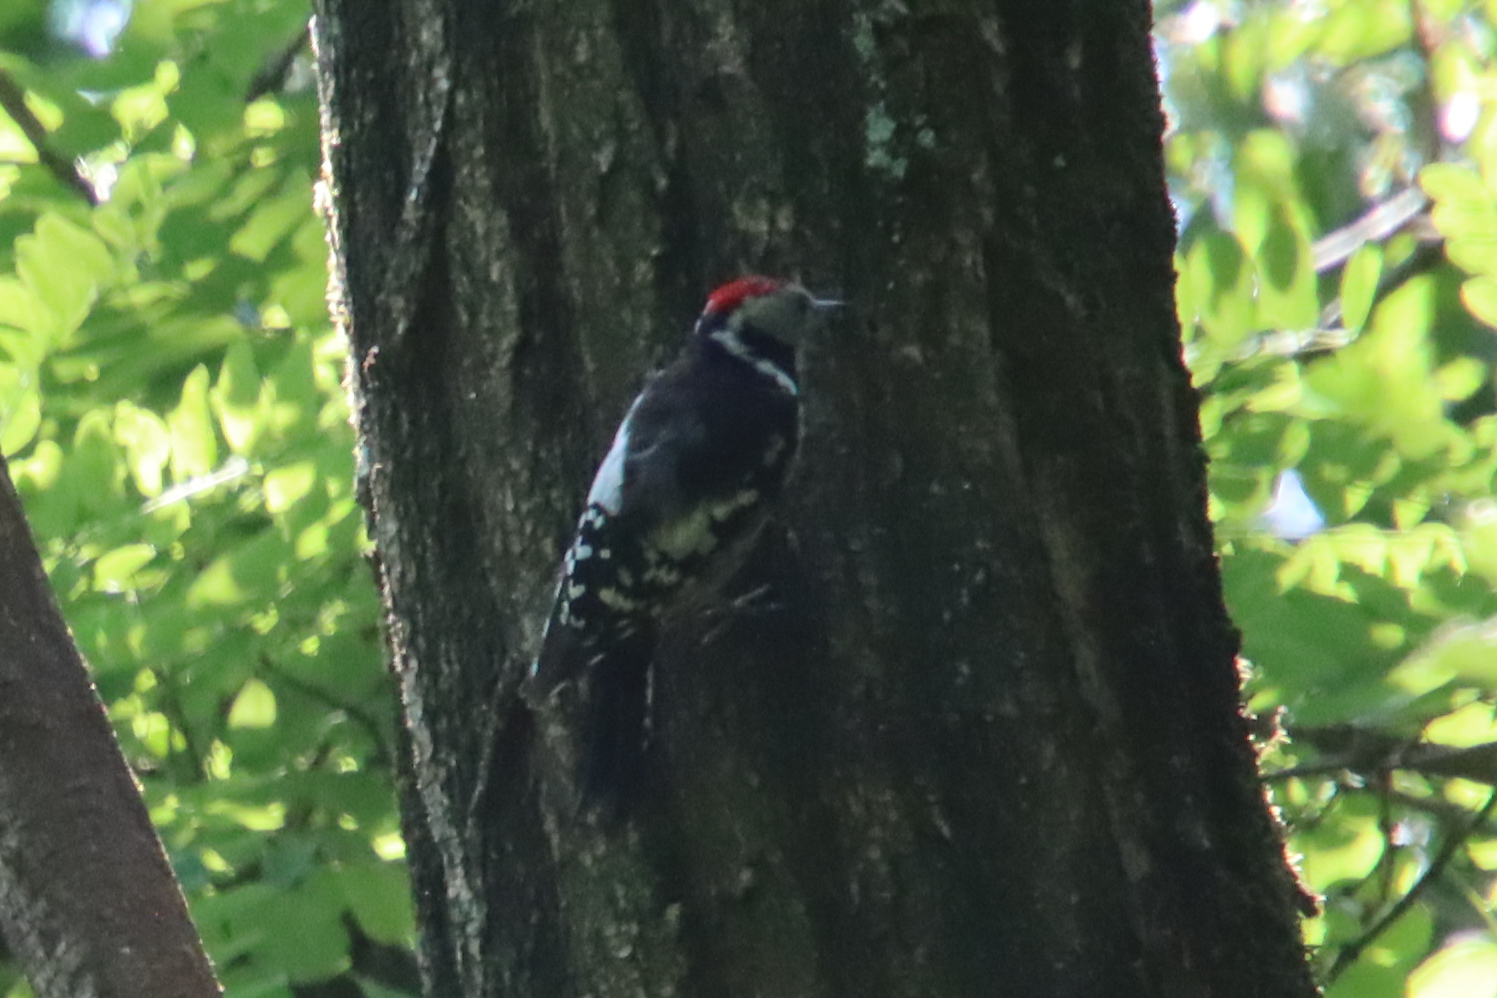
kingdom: Animalia
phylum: Chordata
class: Aves
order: Piciformes
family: Picidae
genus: Dendrocoptes
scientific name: Dendrocoptes medius
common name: Middle spotted woodpecker
